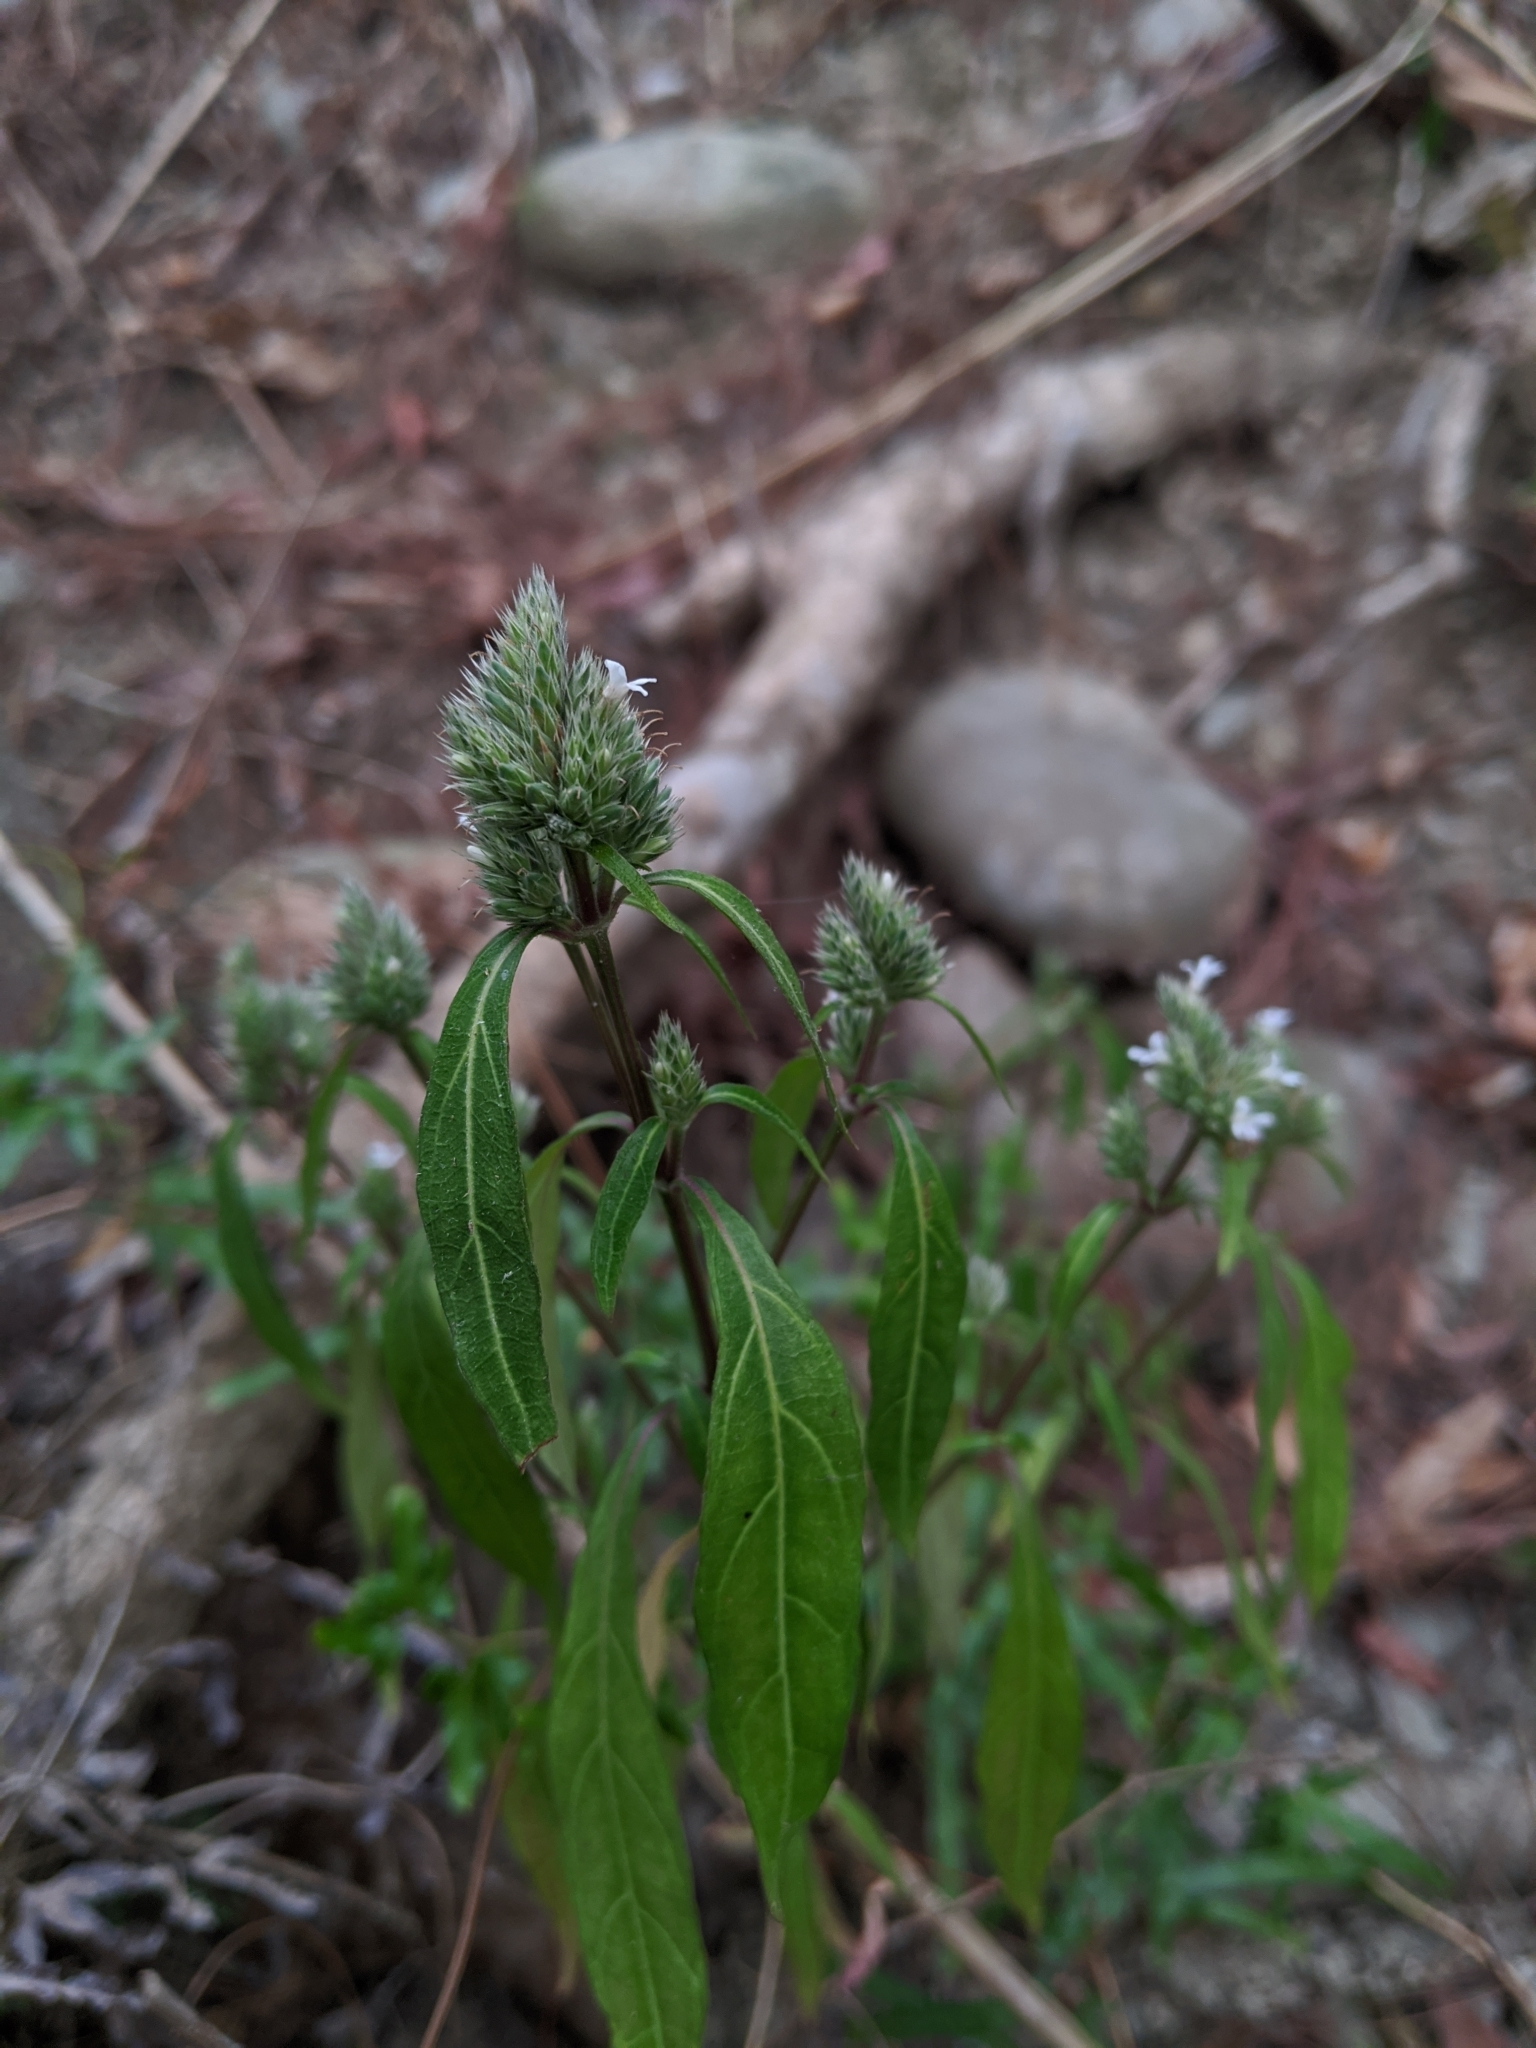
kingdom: Plantae
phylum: Tracheophyta
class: Magnoliopsida
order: Lamiales
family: Acanthaceae
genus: Lepidagathis
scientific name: Lepidagathis formosensis
